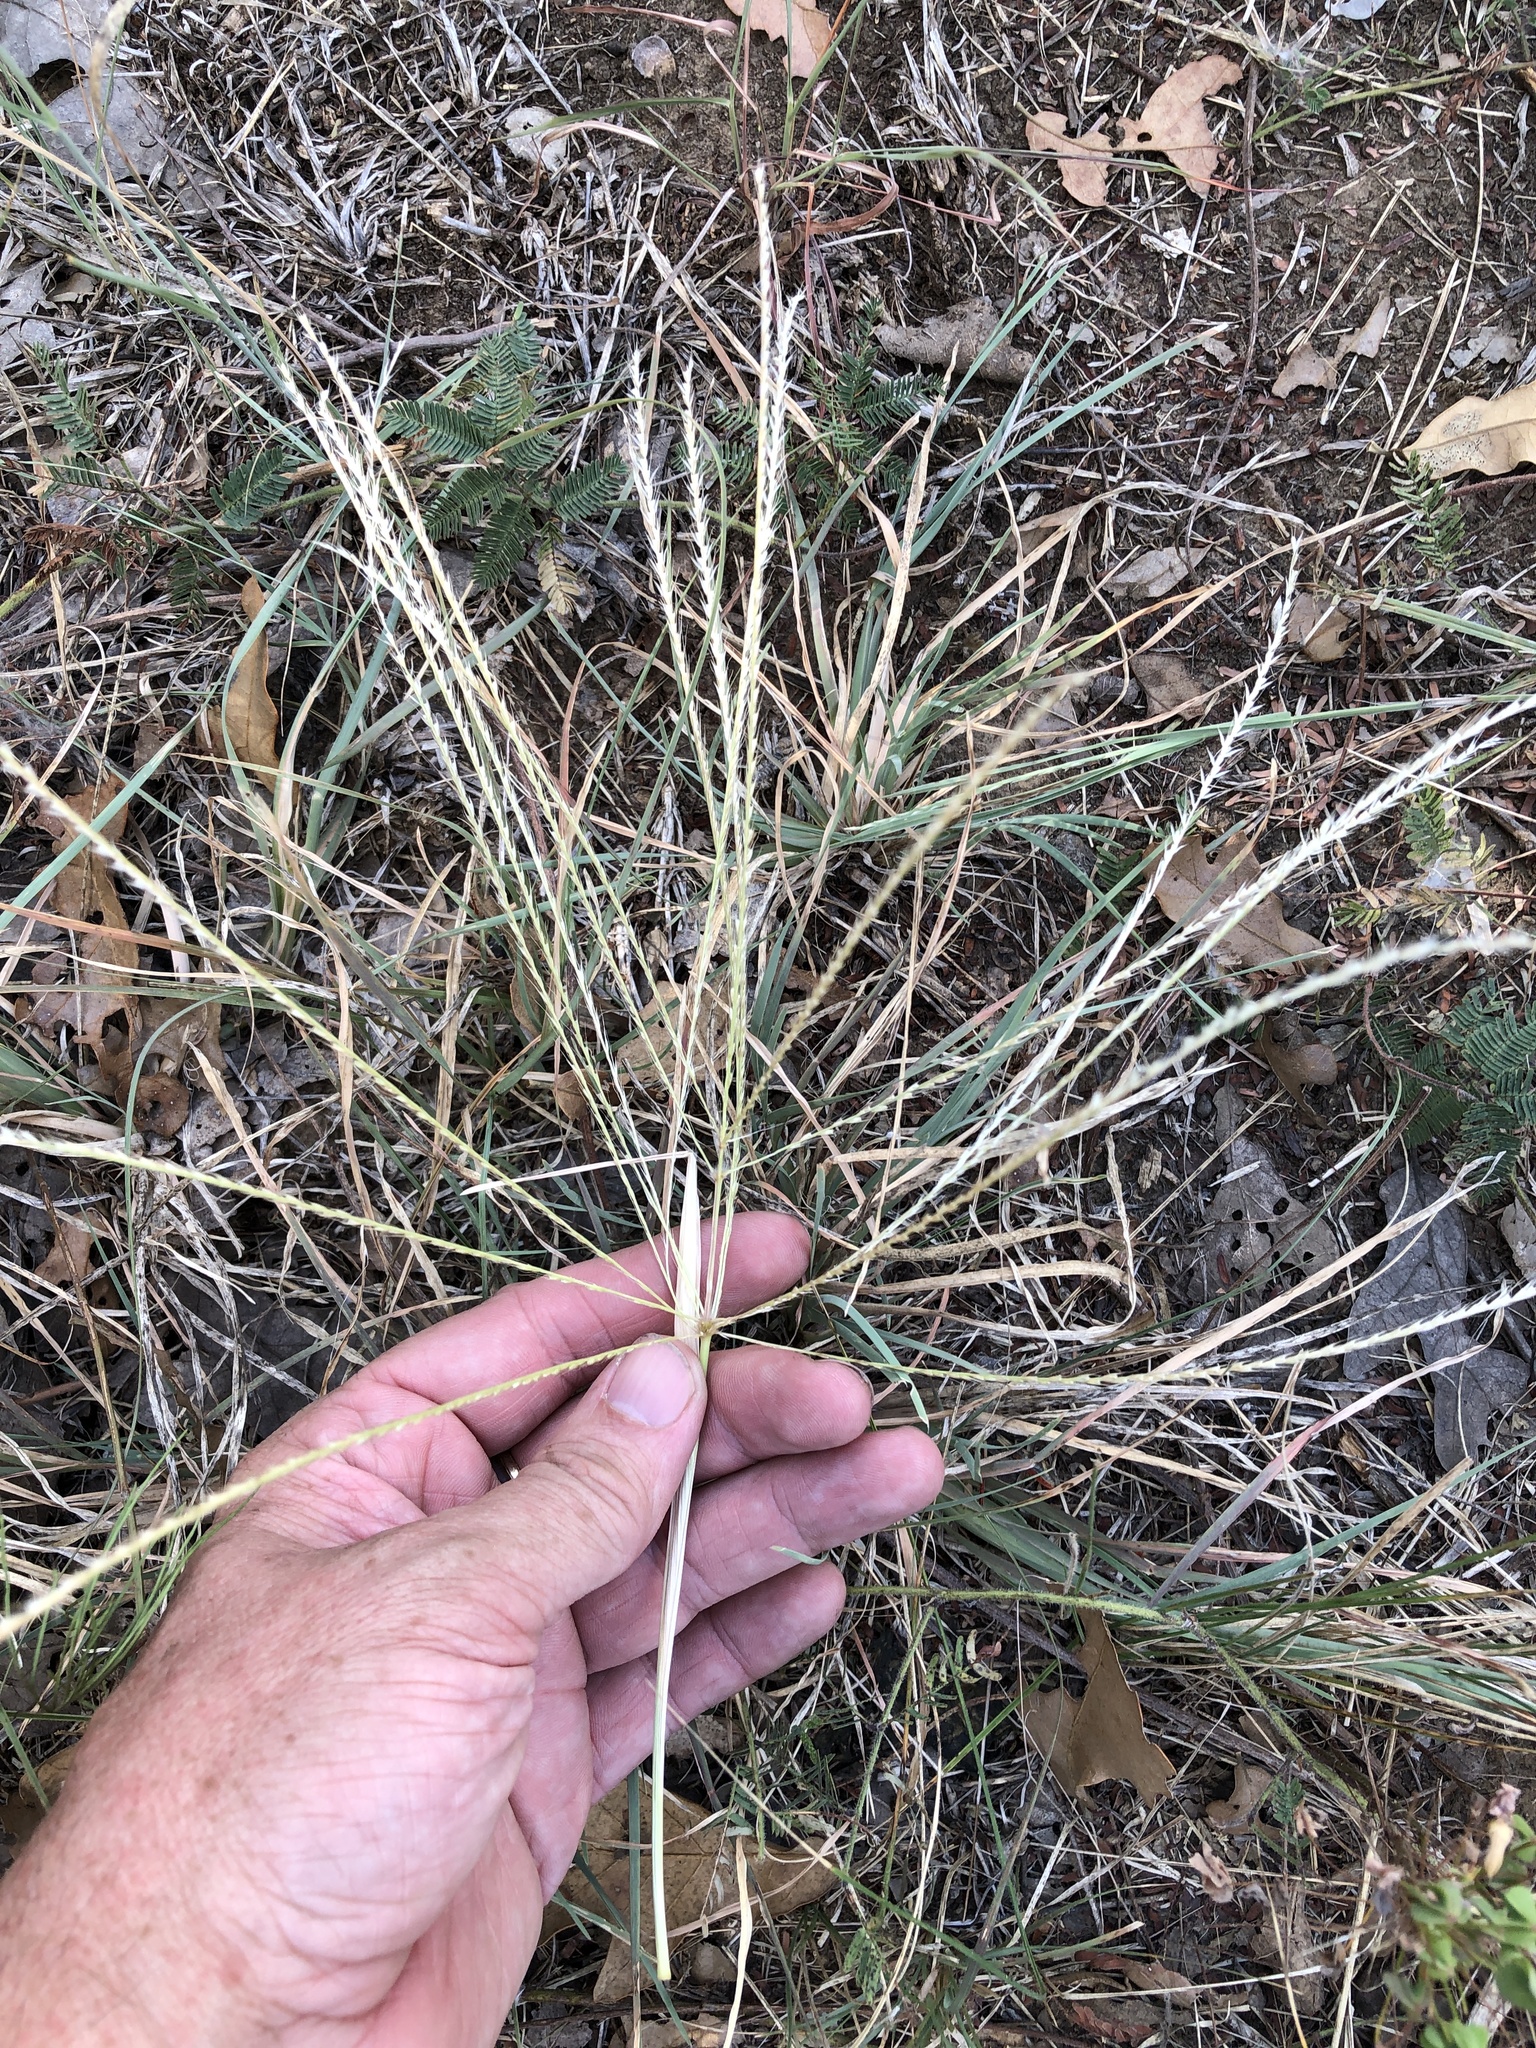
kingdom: Plantae
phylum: Tracheophyta
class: Liliopsida
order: Poales
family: Poaceae
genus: Chloris
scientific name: Chloris verticillata
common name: Tumble windmill grass
